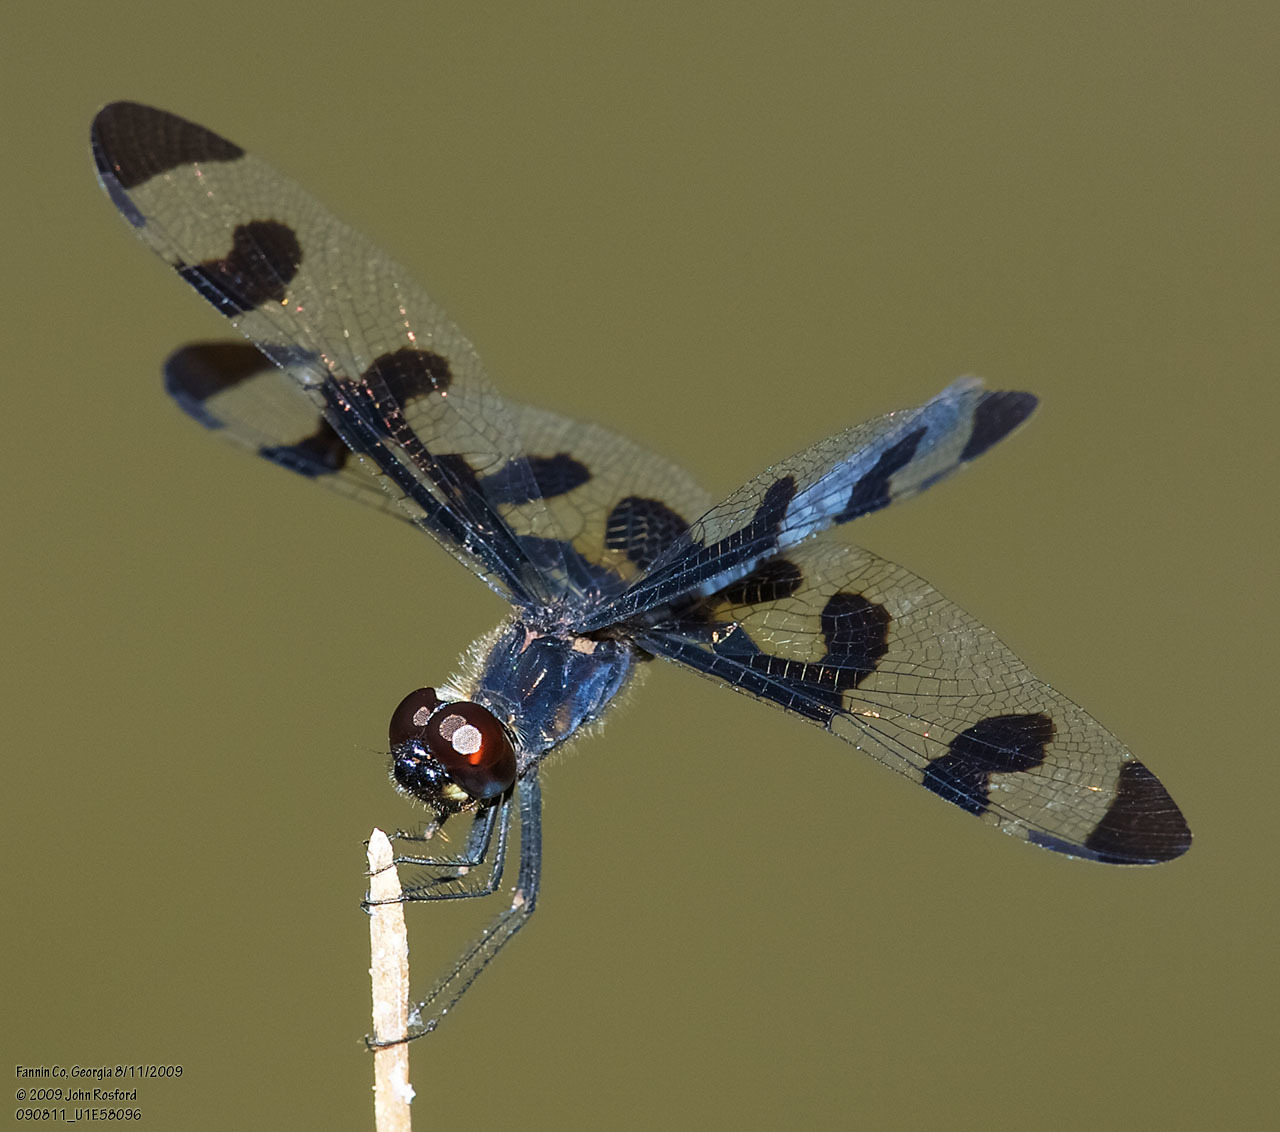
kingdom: Animalia
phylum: Arthropoda
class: Insecta
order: Odonata
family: Libellulidae
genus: Celithemis
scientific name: Celithemis fasciata
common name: Banded pennant
